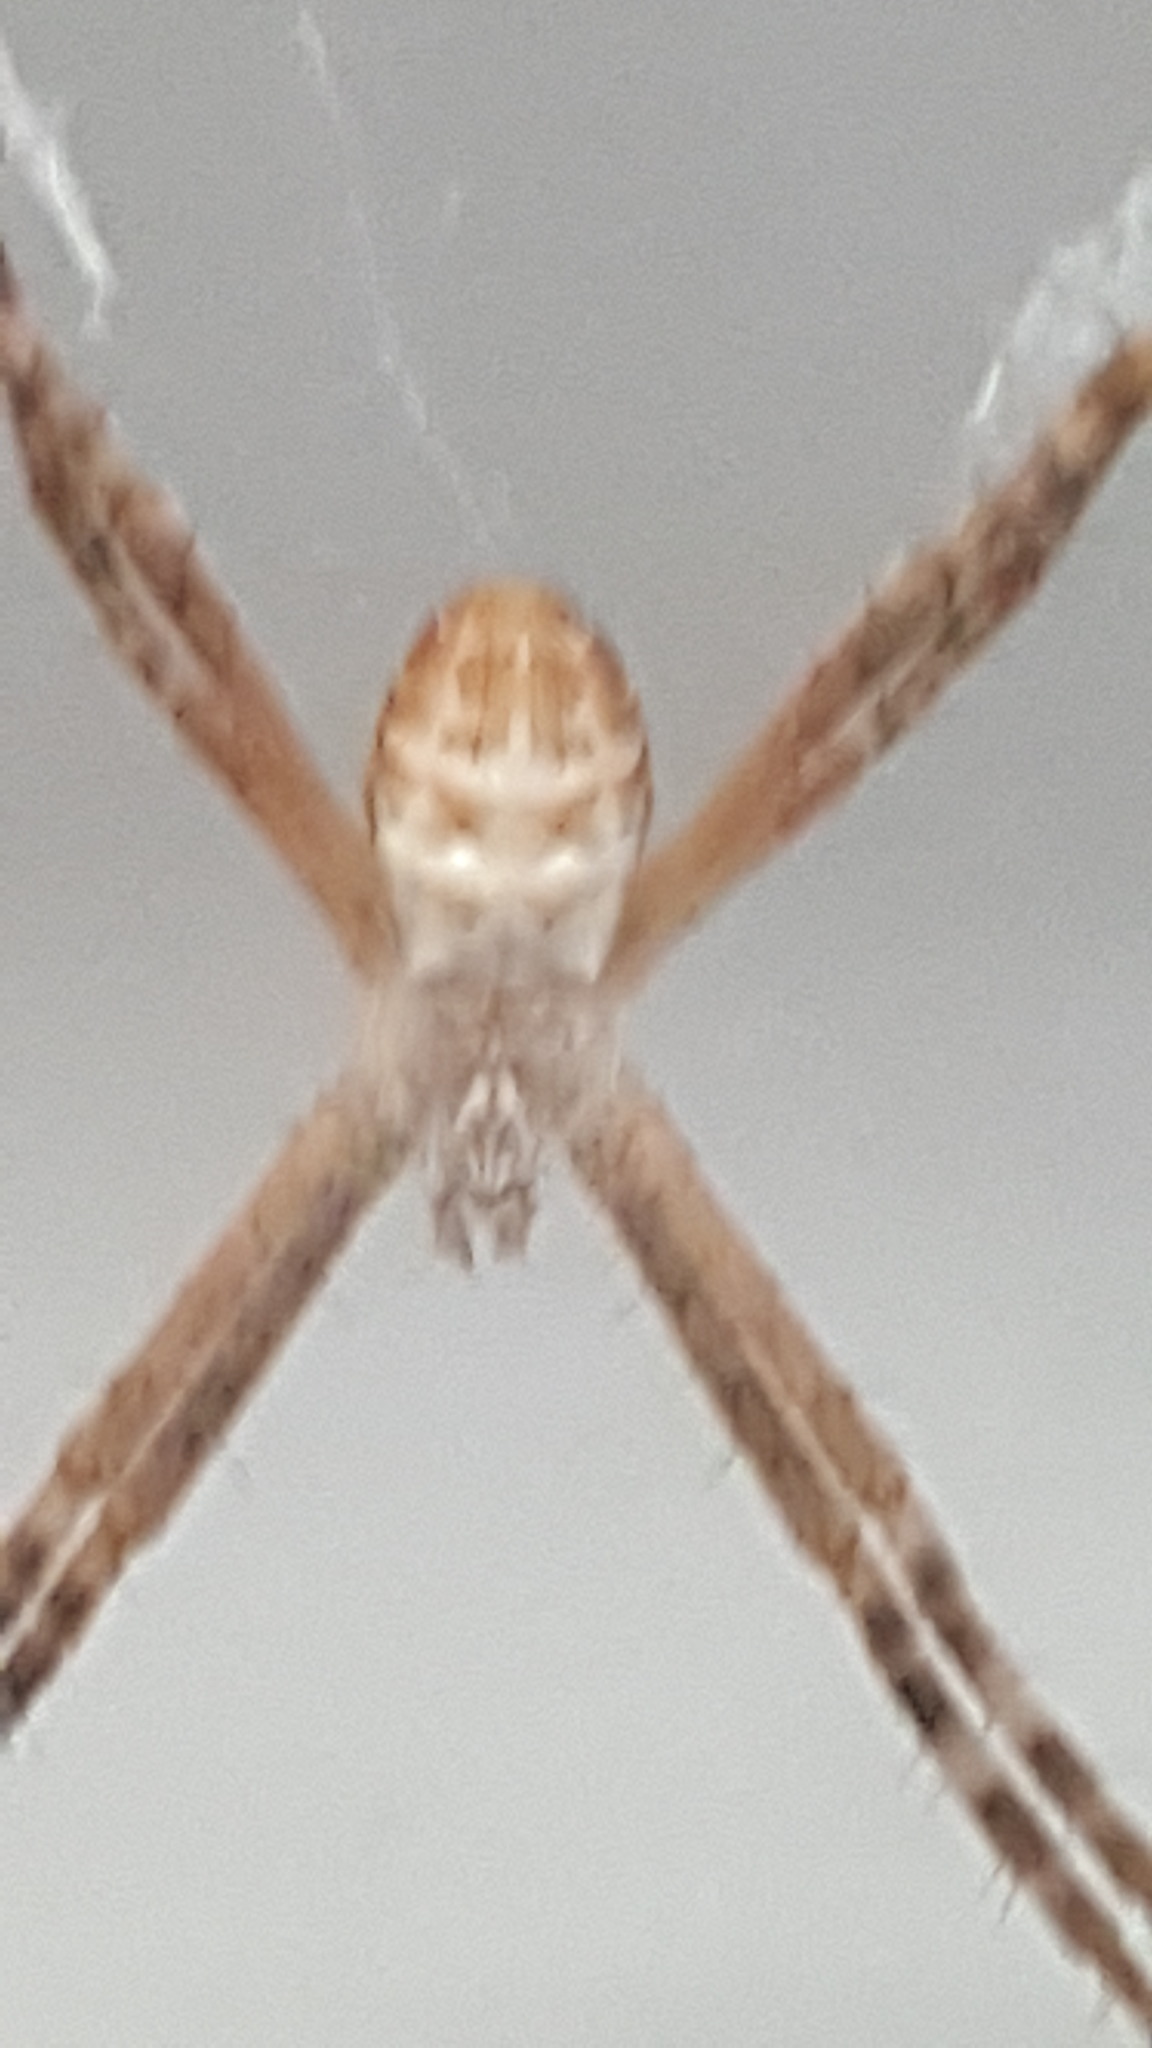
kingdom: Animalia
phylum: Arthropoda
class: Arachnida
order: Araneae
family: Araneidae
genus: Argiope
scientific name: Argiope keyserlingi
